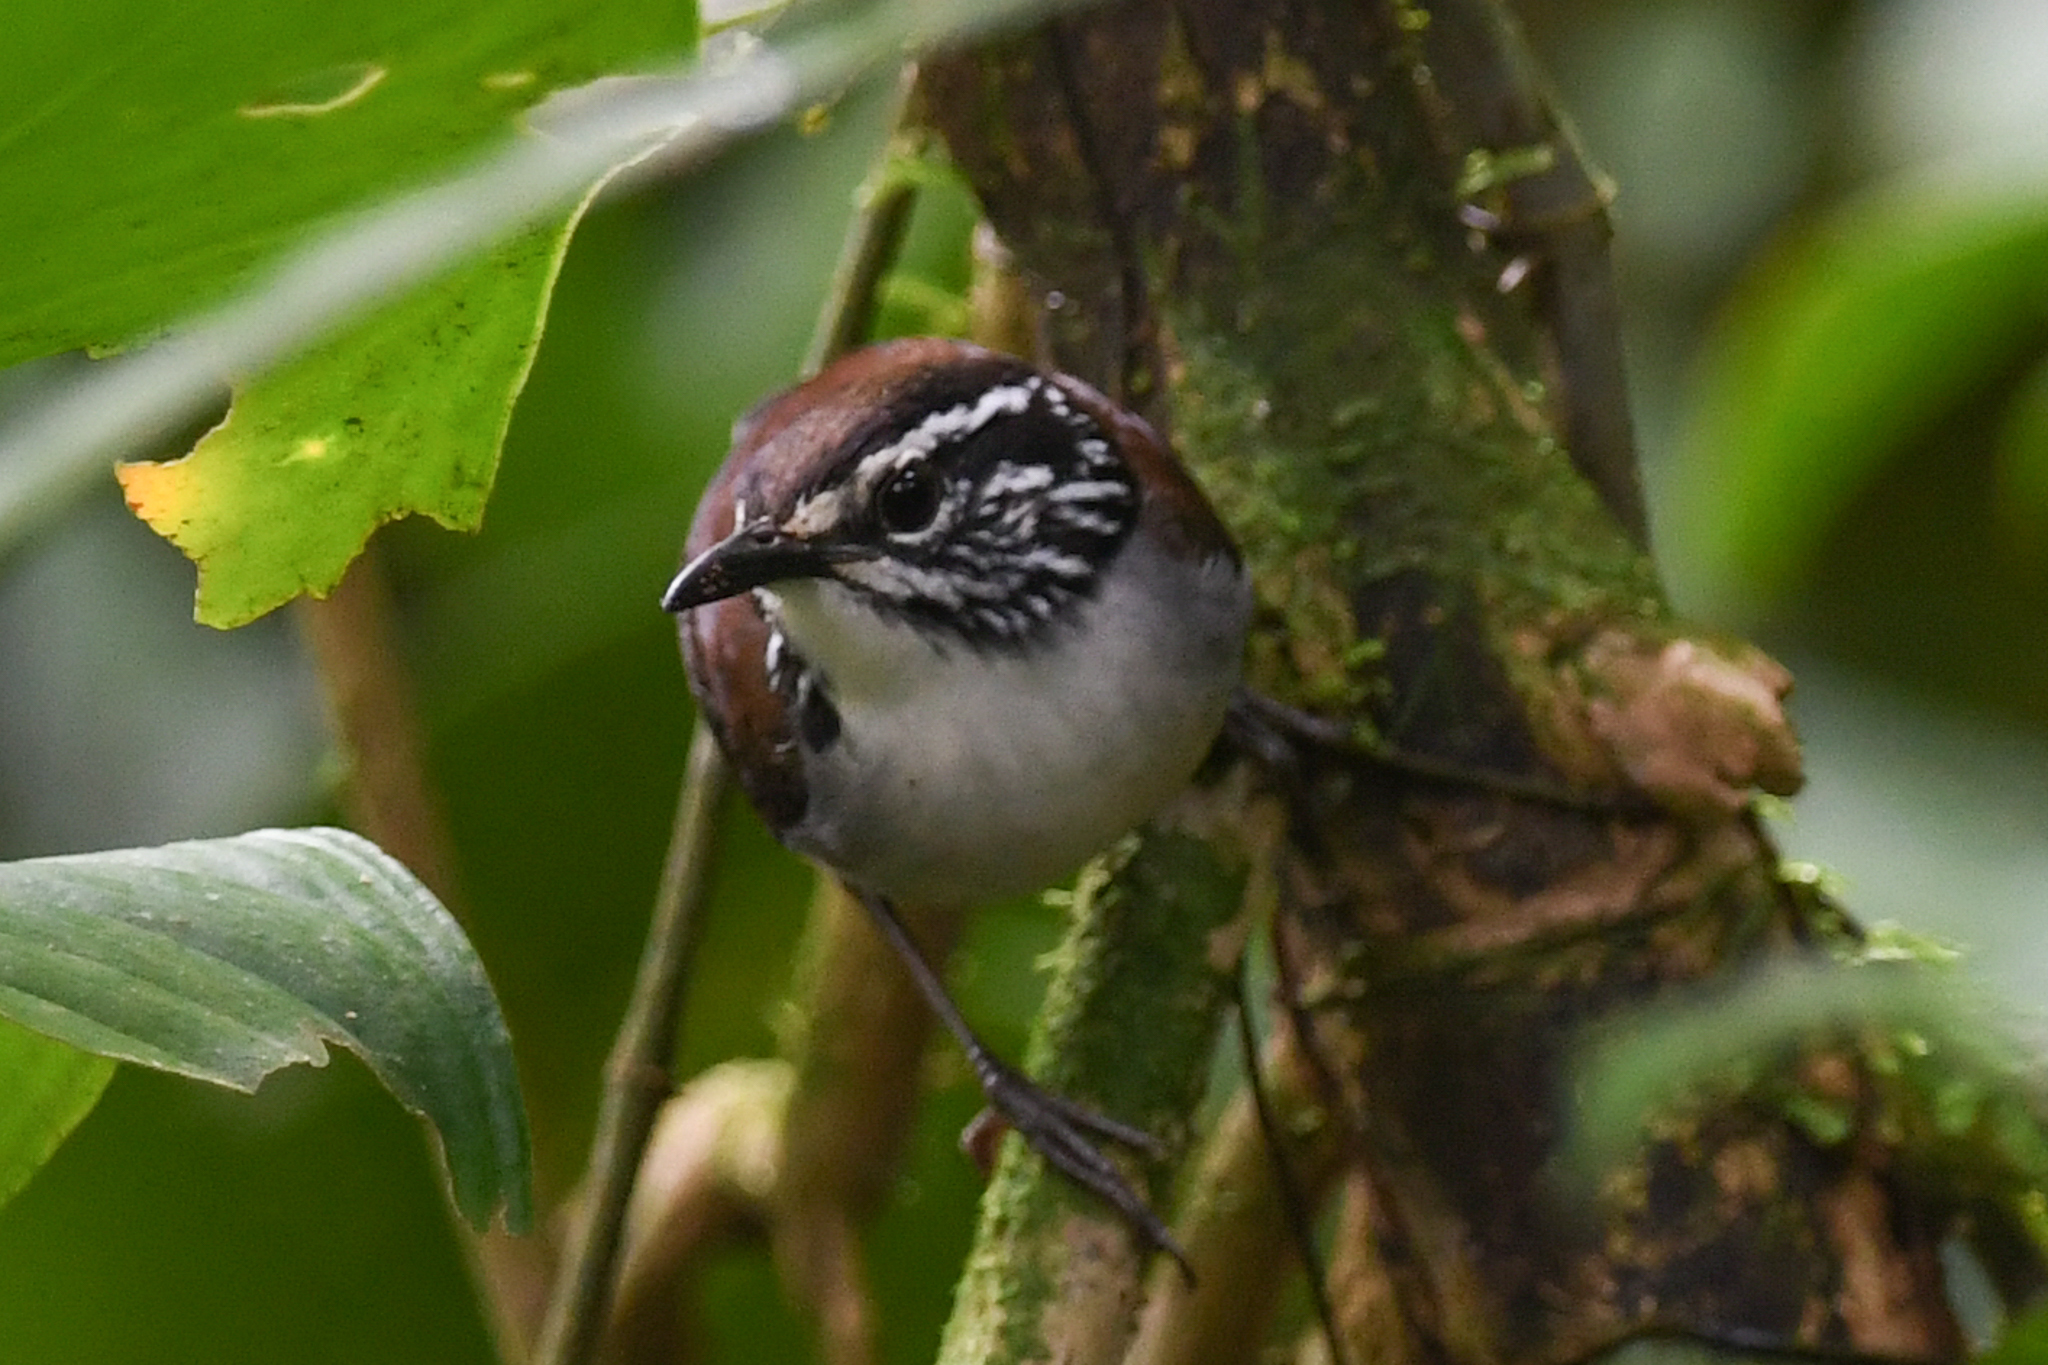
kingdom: Animalia
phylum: Chordata
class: Aves
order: Passeriformes
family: Troglodytidae
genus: Henicorhina
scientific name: Henicorhina leucosticta
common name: White-breasted wood-wren
